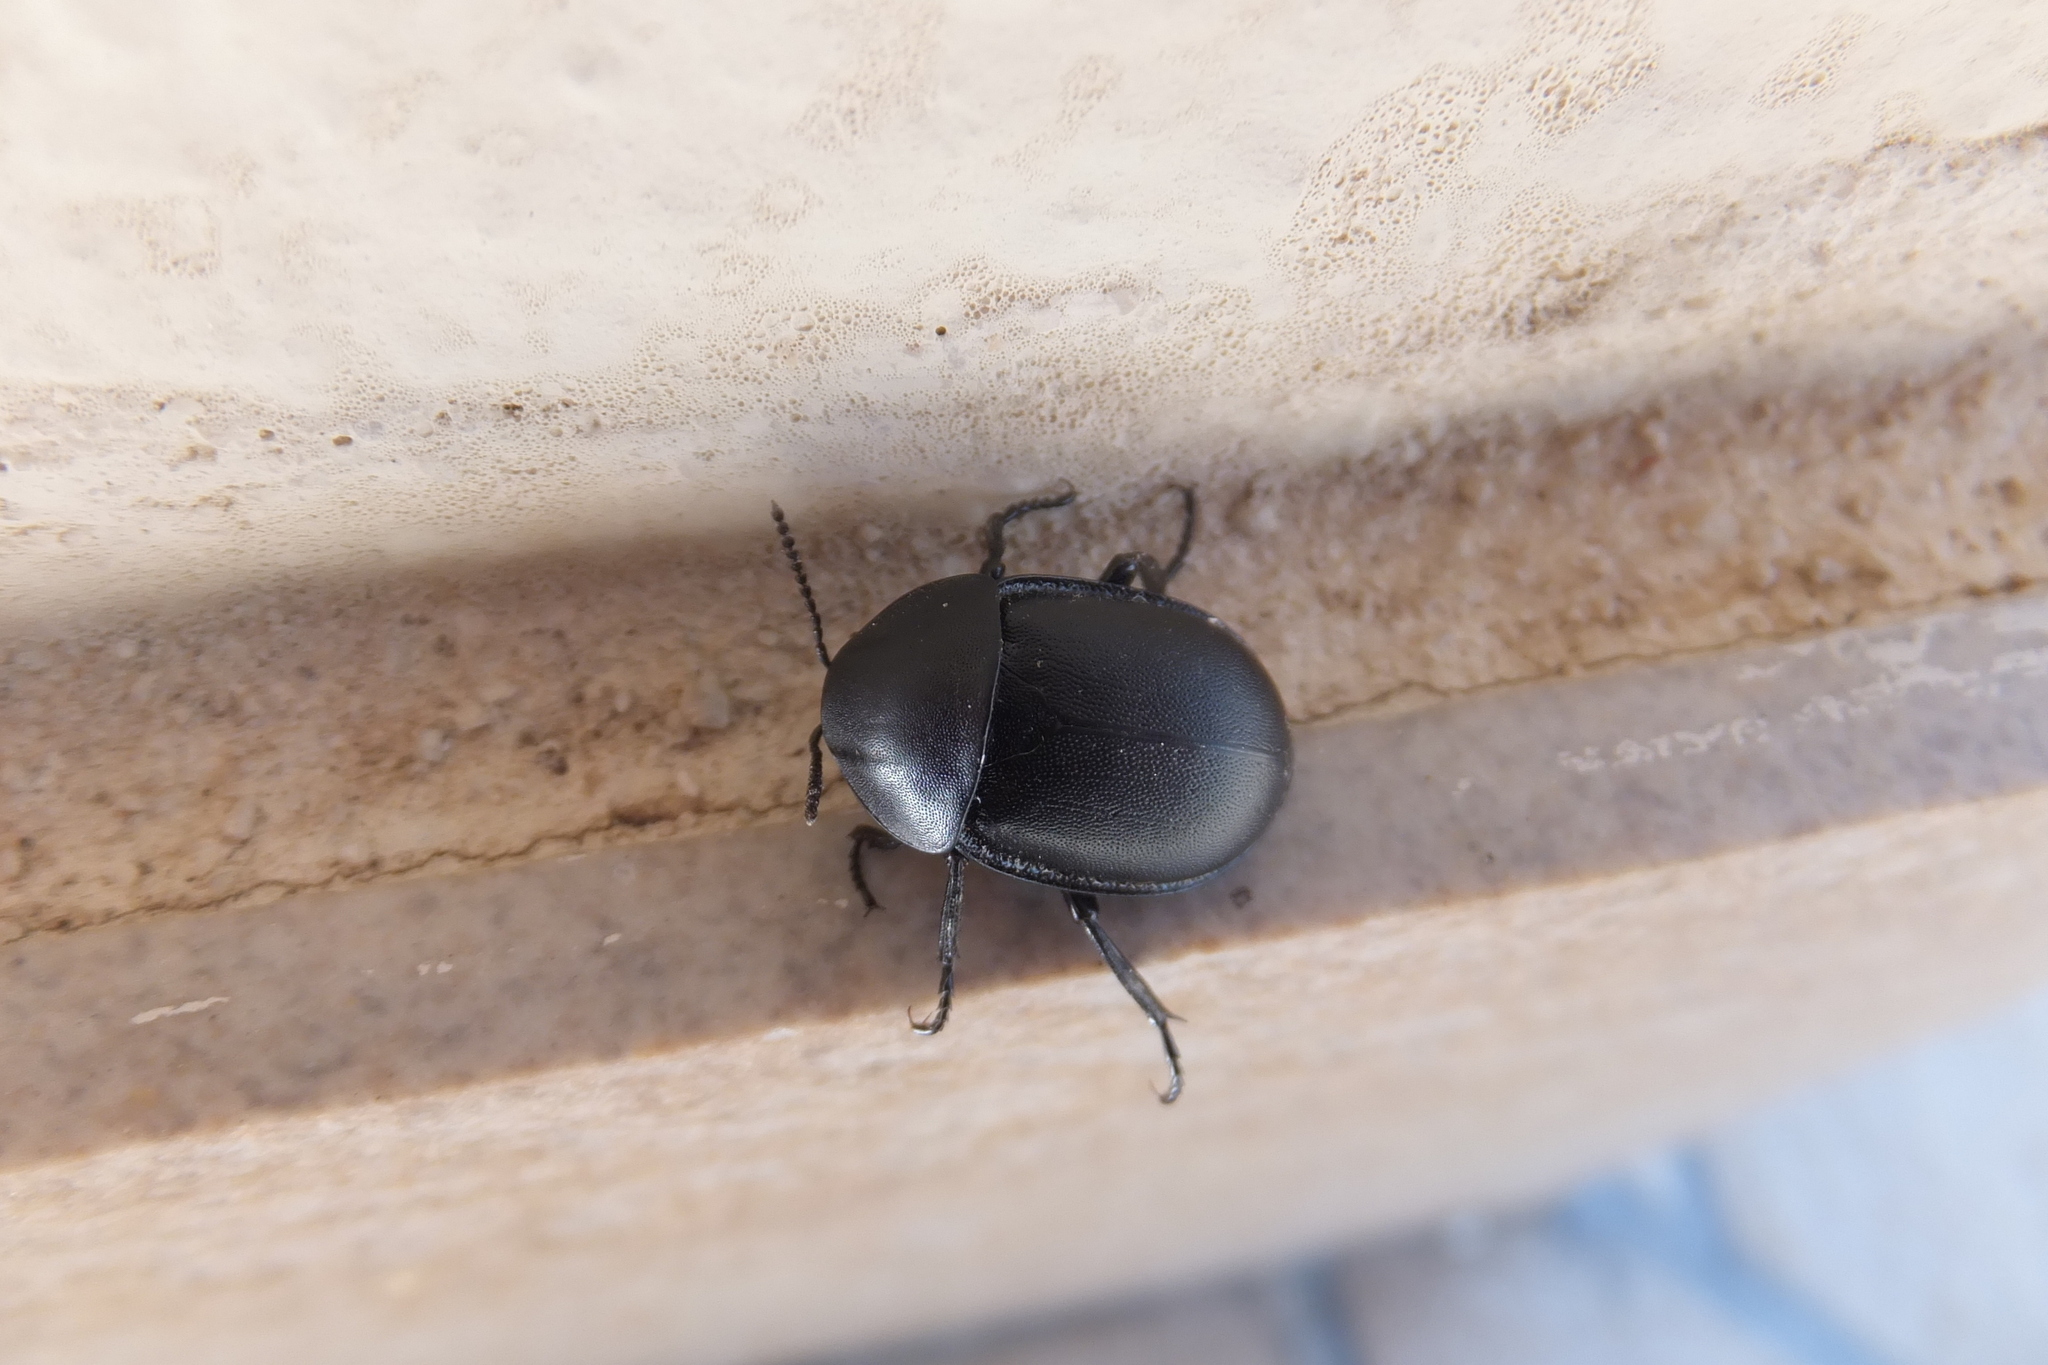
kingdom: Animalia
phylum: Arthropoda
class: Insecta
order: Coleoptera
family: Staphylinidae
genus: Silpha
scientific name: Silpha laevigata
